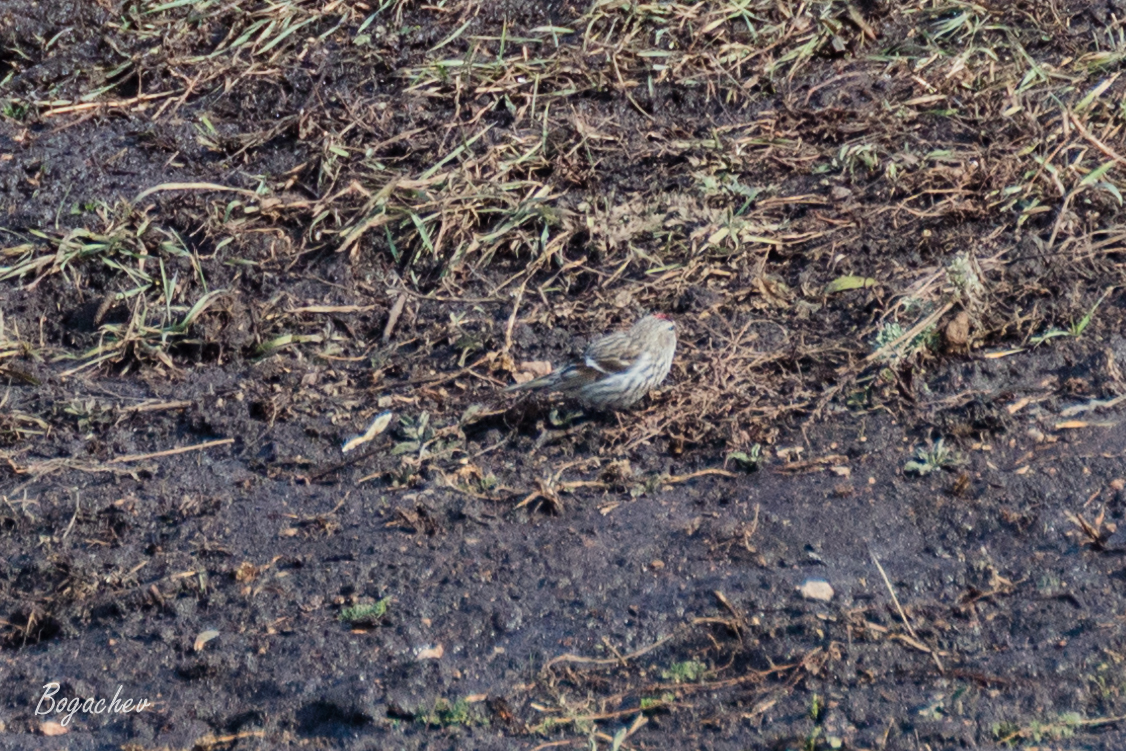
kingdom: Animalia
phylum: Chordata
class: Aves
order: Passeriformes
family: Fringillidae
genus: Acanthis
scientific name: Acanthis flammea
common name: Common redpoll
